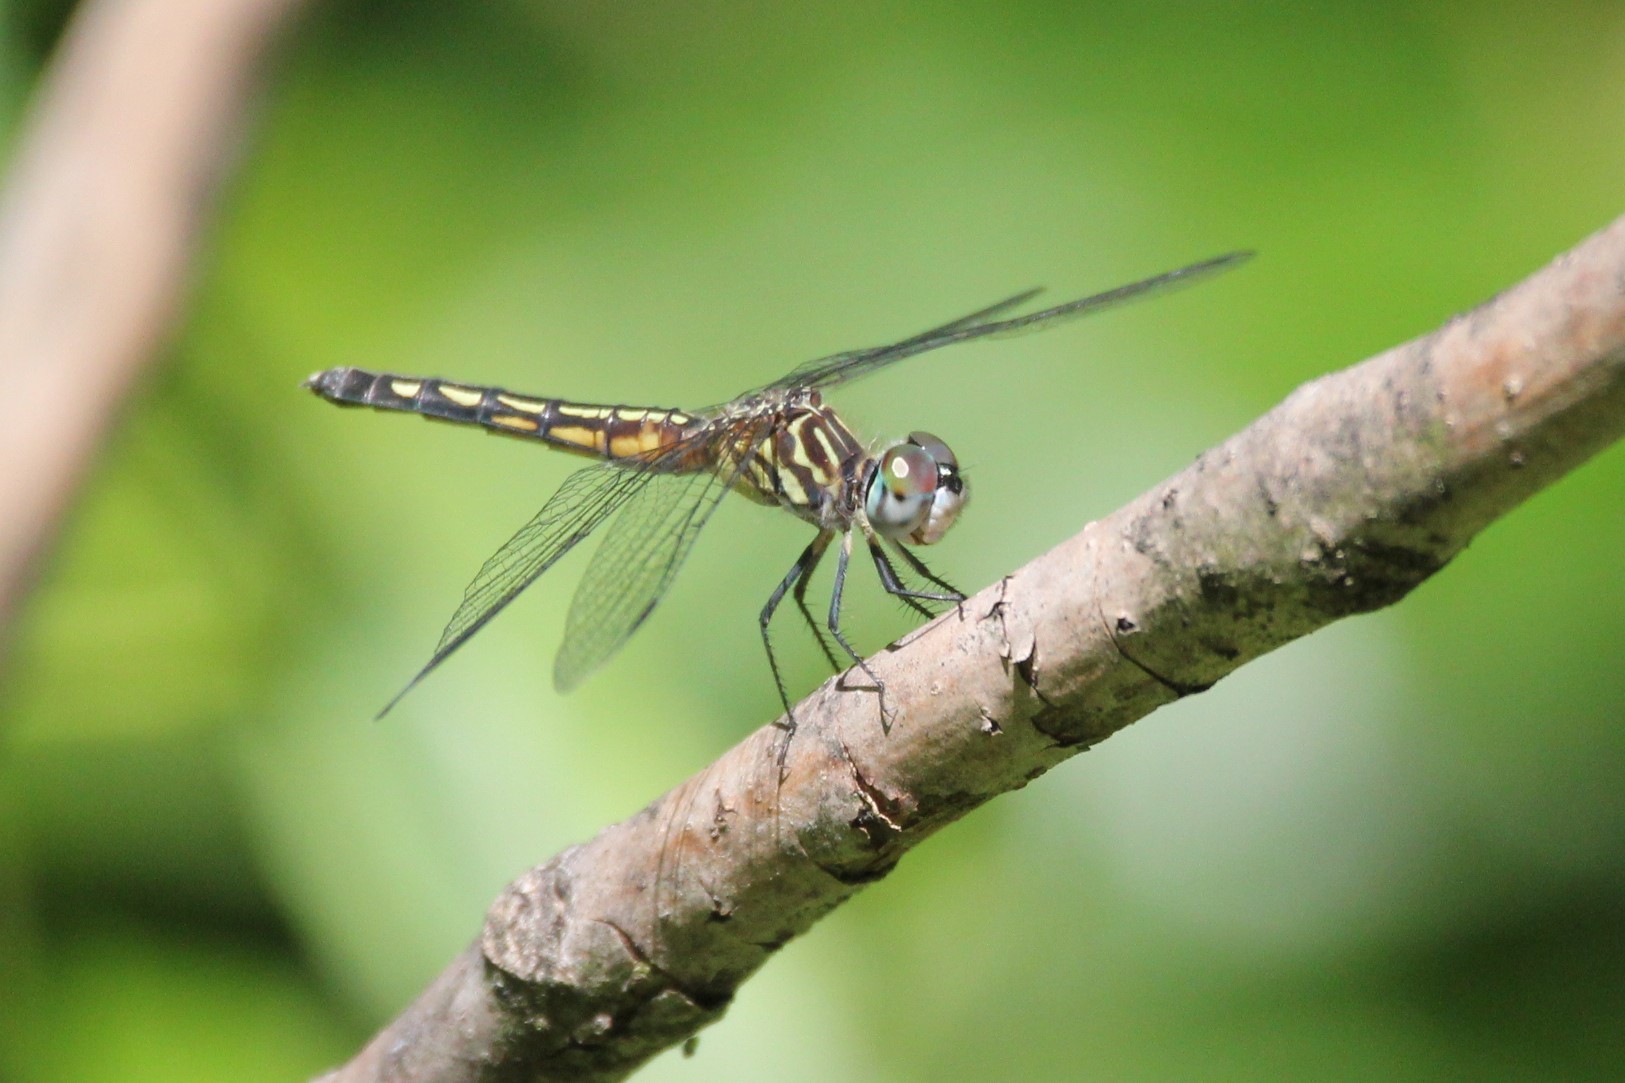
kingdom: Animalia
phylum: Arthropoda
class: Insecta
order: Odonata
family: Libellulidae
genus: Pachydiplax
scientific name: Pachydiplax longipennis
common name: Blue dasher
